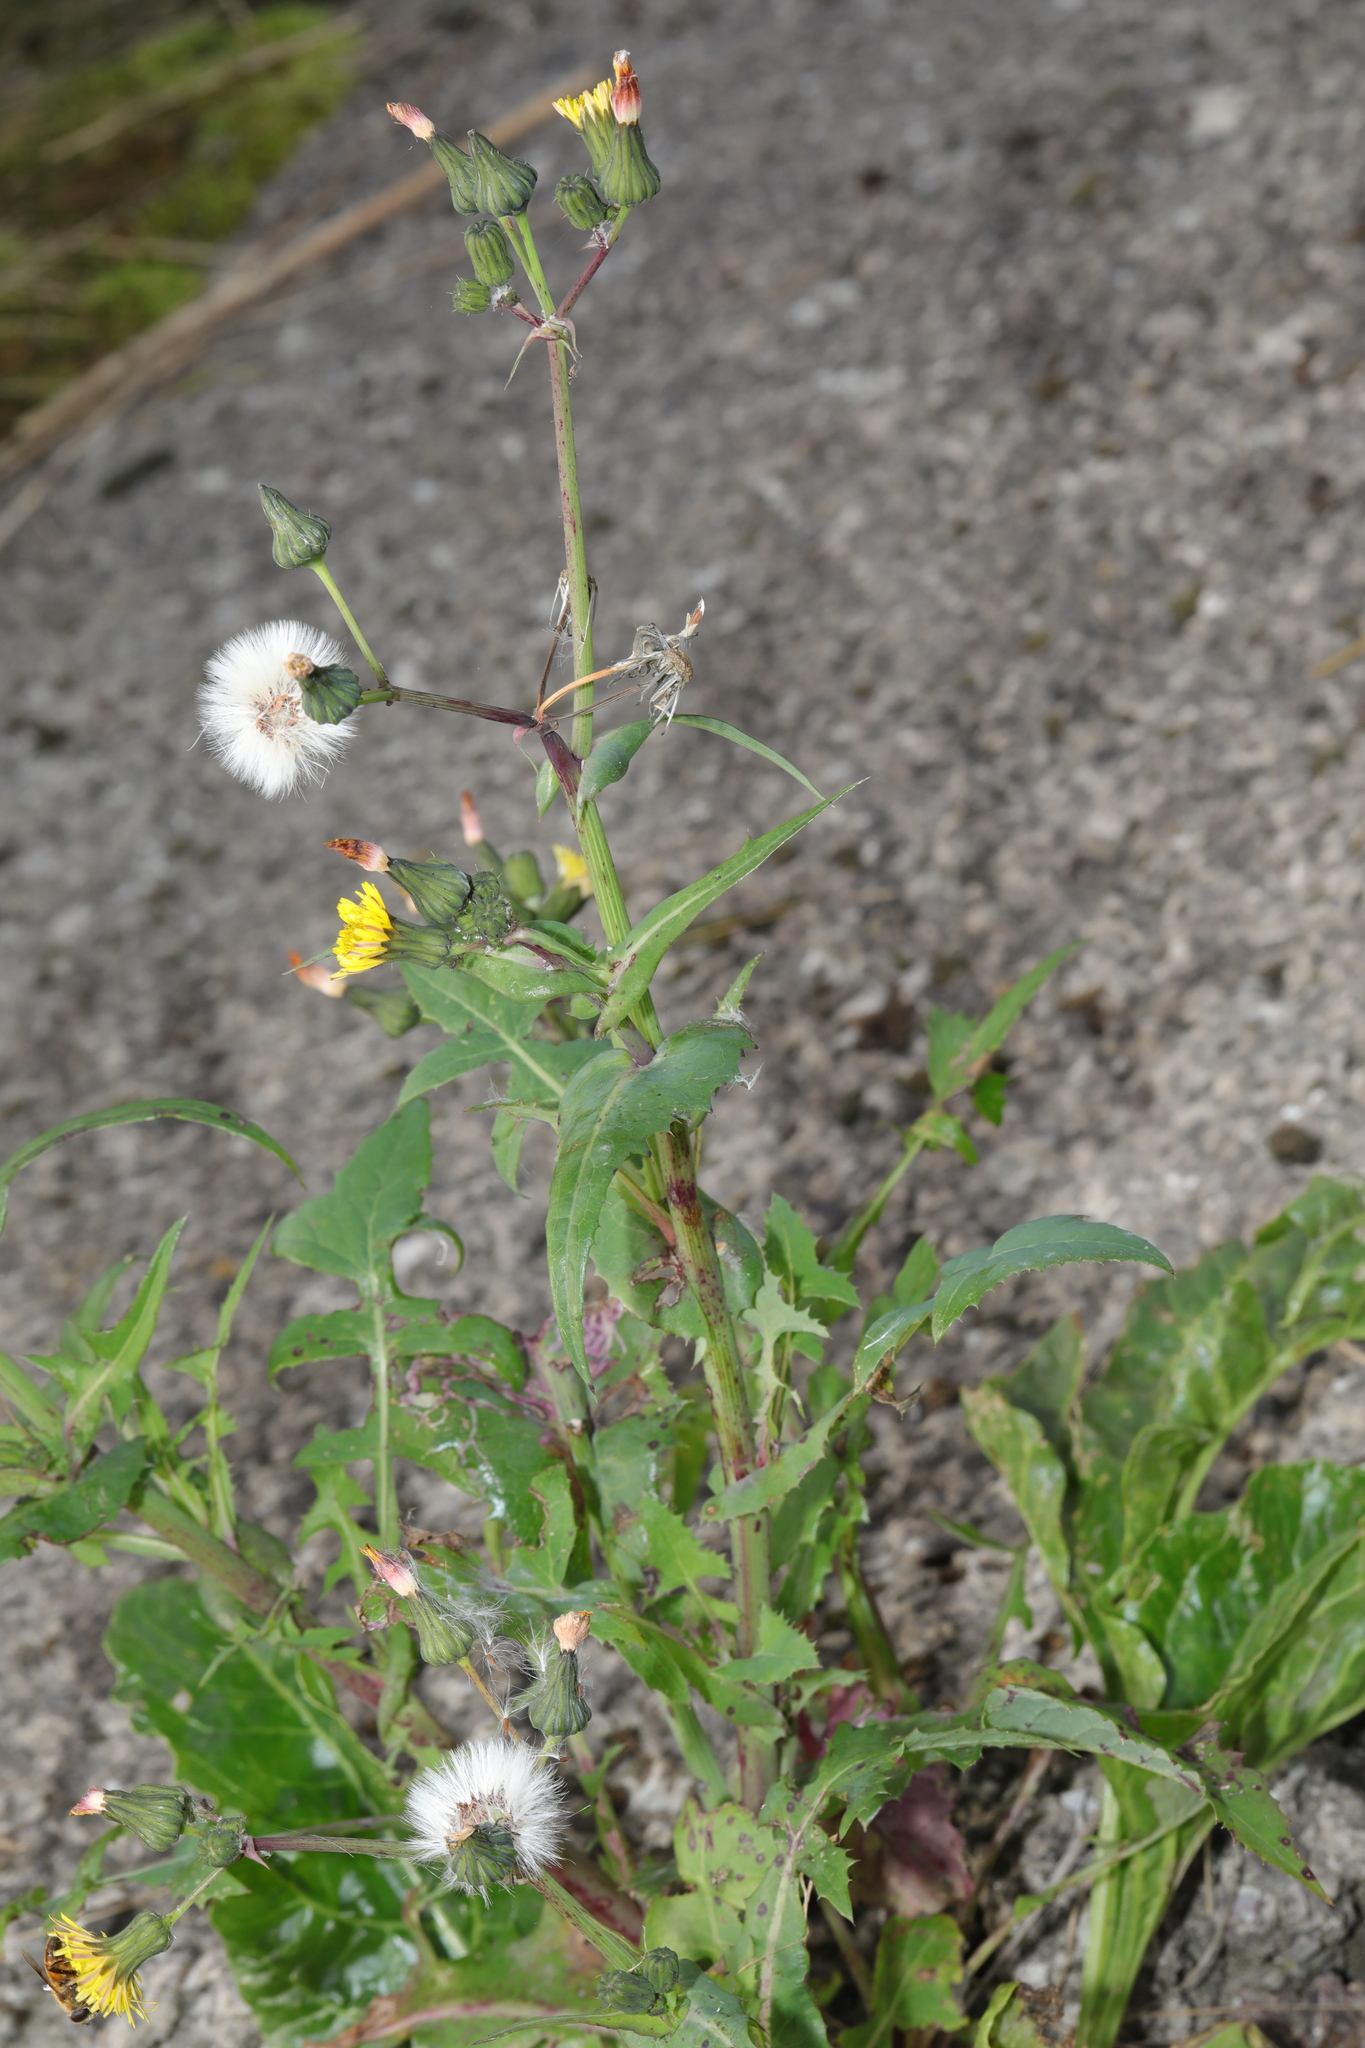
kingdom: Plantae
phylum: Tracheophyta
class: Magnoliopsida
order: Asterales
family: Asteraceae
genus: Sonchus
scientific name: Sonchus oleraceus
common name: Common sowthistle
